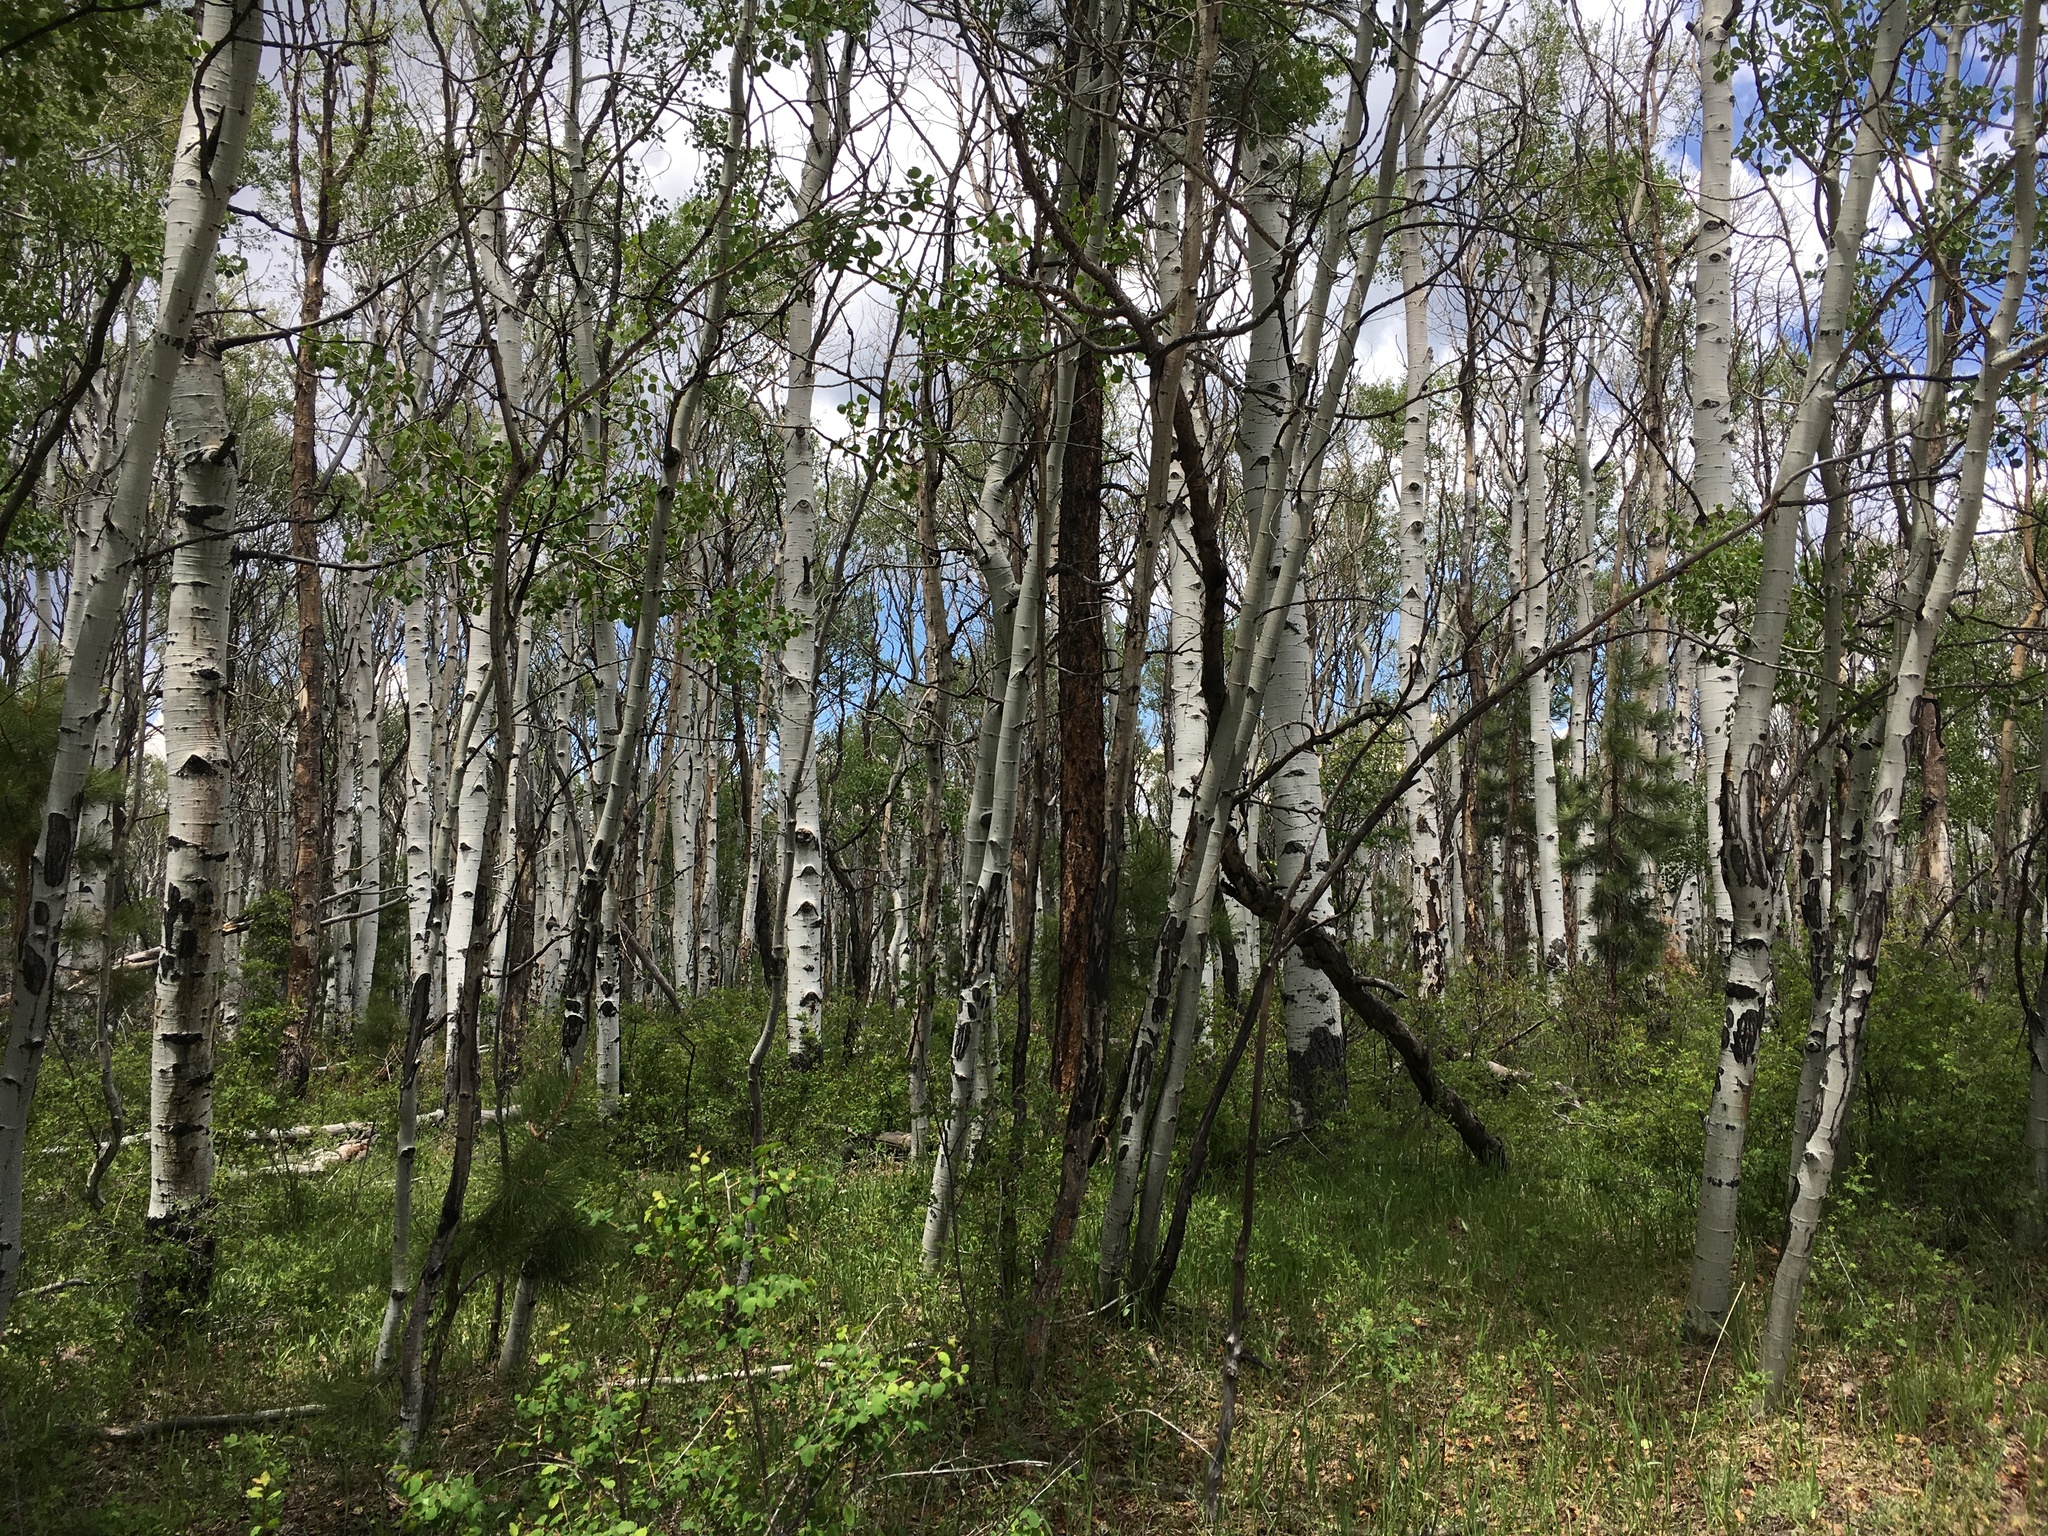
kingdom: Plantae
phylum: Tracheophyta
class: Magnoliopsida
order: Malpighiales
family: Salicaceae
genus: Populus
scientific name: Populus tremuloides
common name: Quaking aspen
